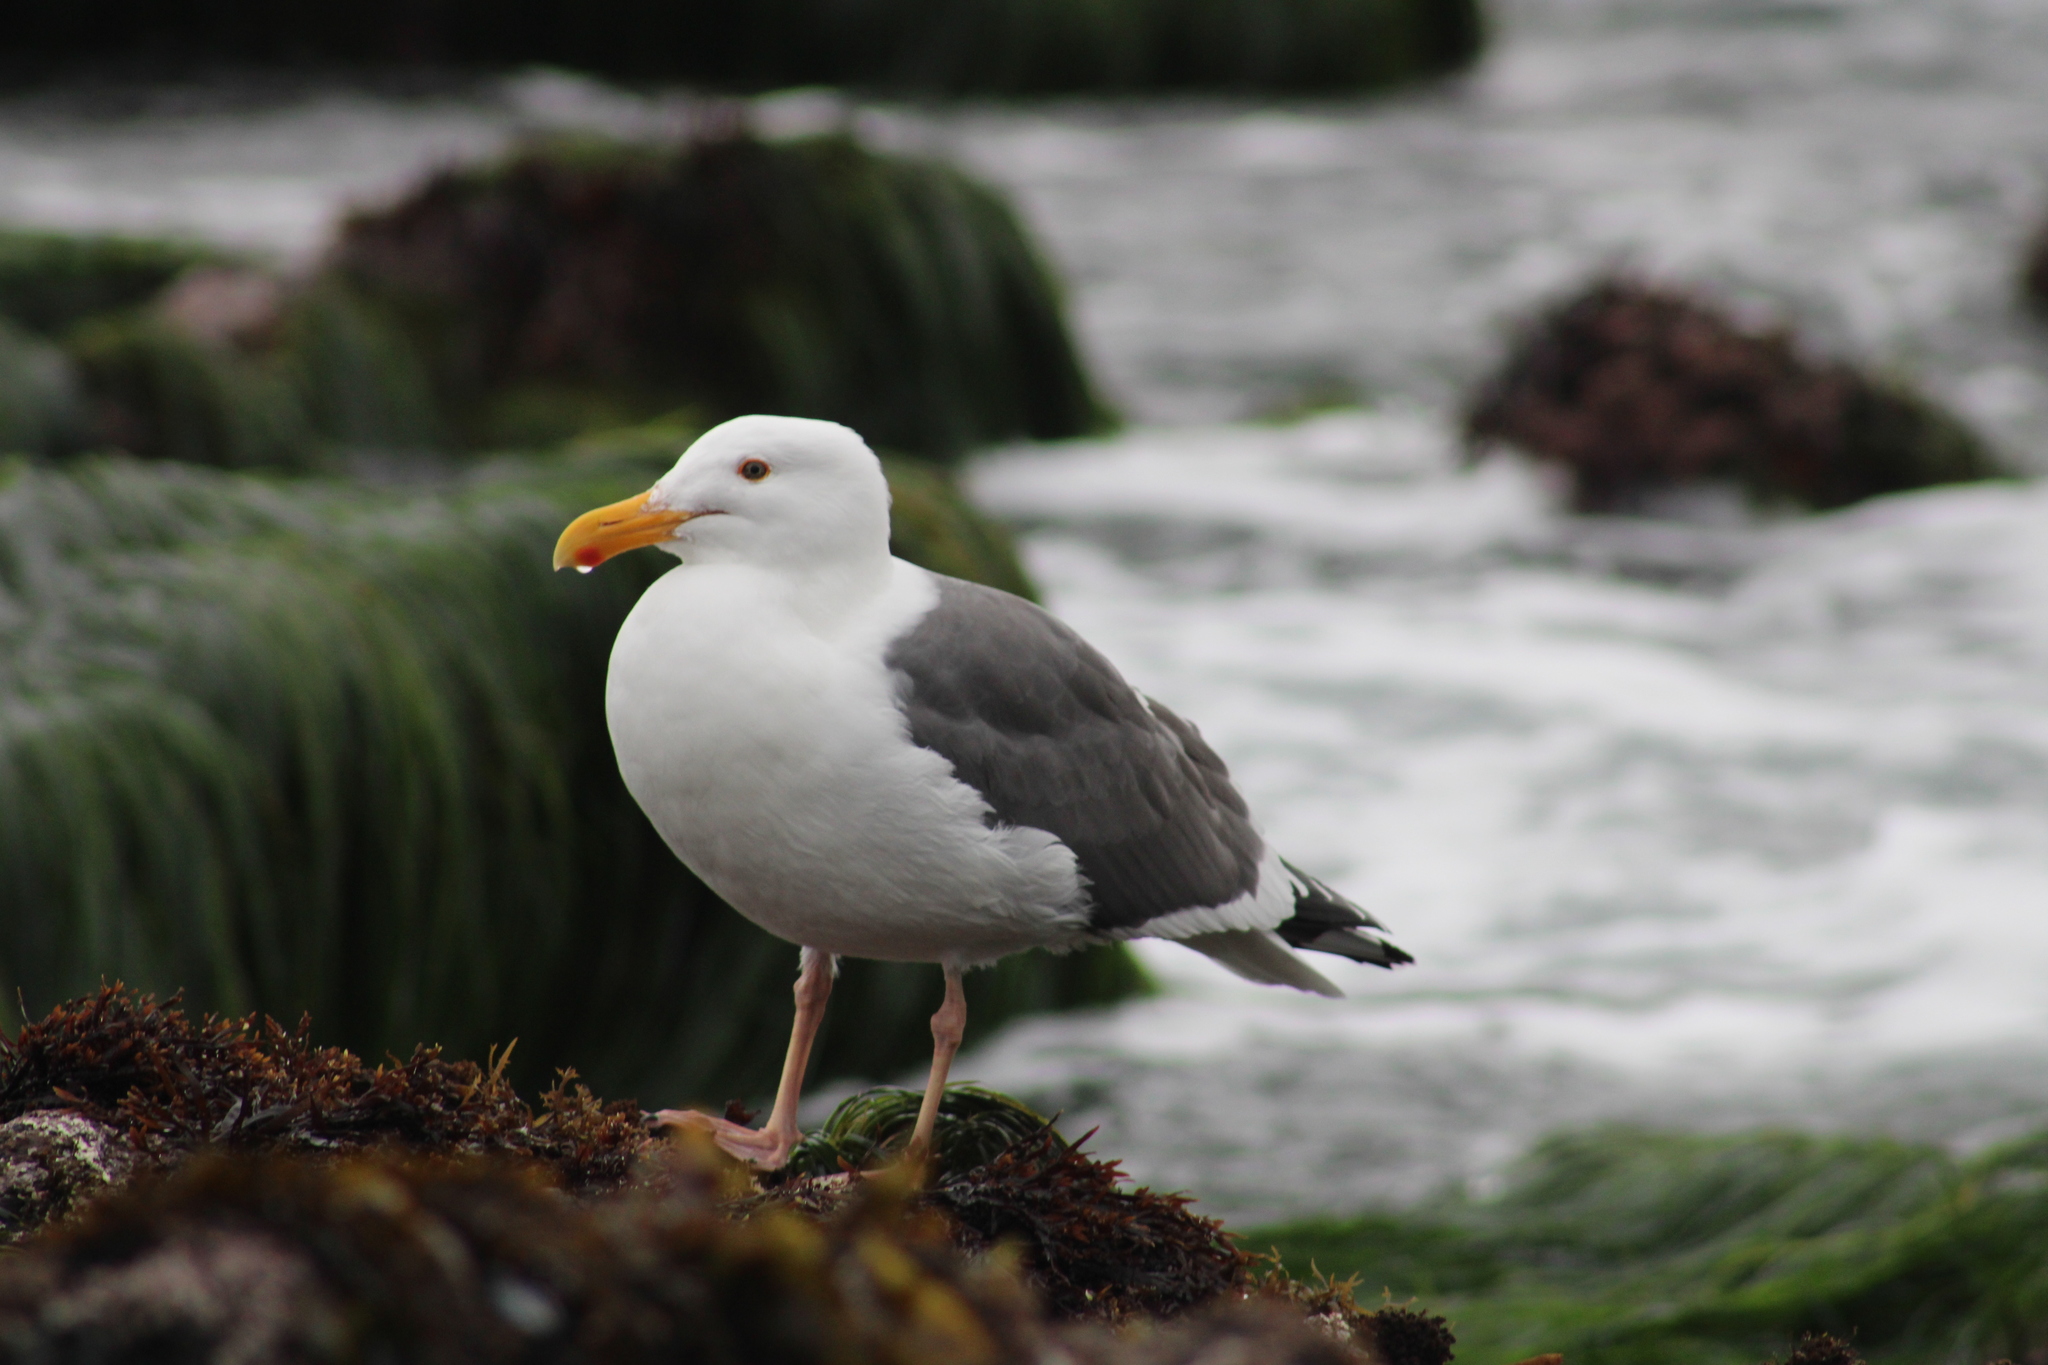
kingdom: Animalia
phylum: Chordata
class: Aves
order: Charadriiformes
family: Laridae
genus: Larus
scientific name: Larus occidentalis
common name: Western gull
